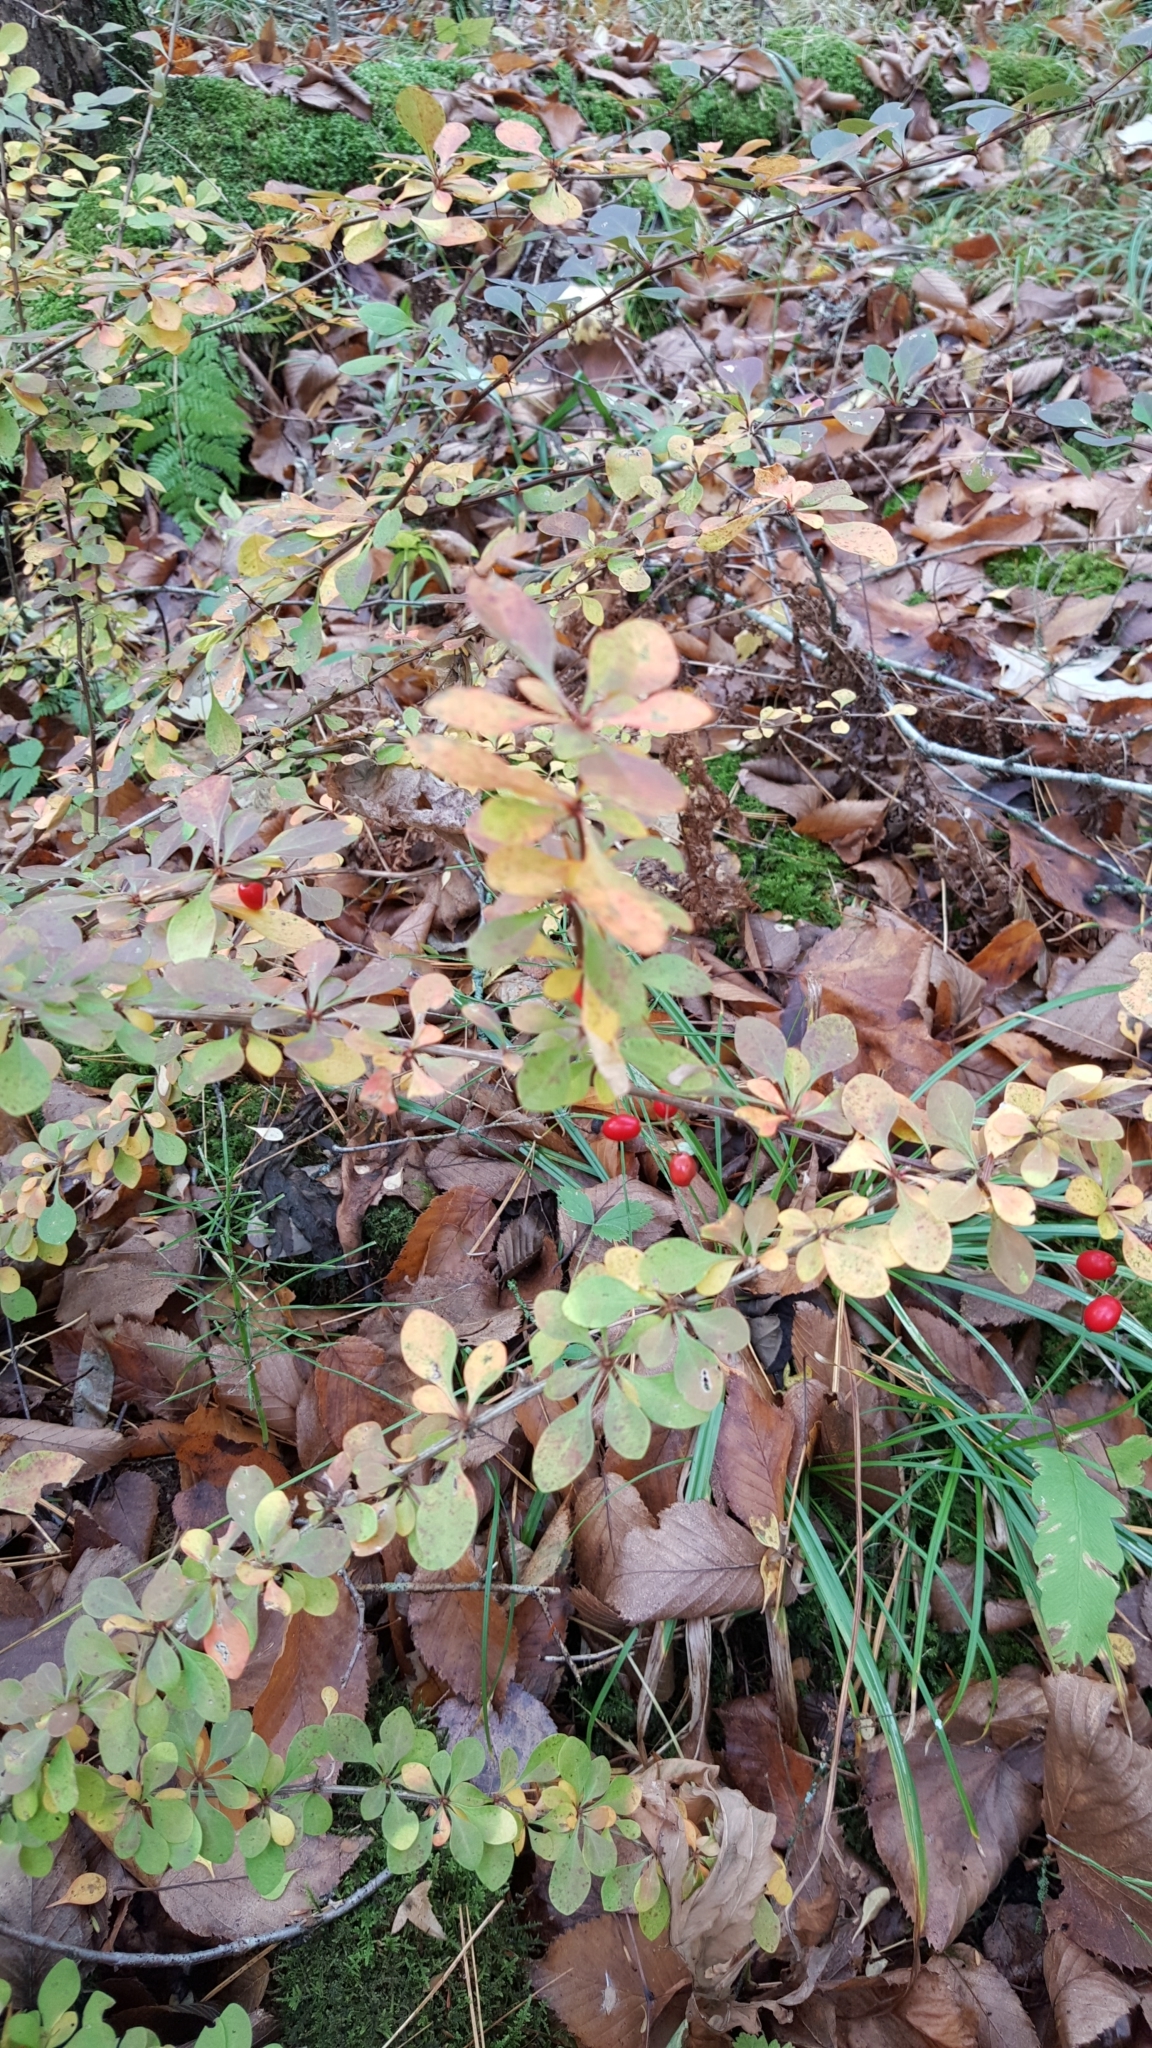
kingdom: Plantae
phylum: Tracheophyta
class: Magnoliopsida
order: Ranunculales
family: Berberidaceae
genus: Berberis
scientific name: Berberis thunbergii
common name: Japanese barberry
